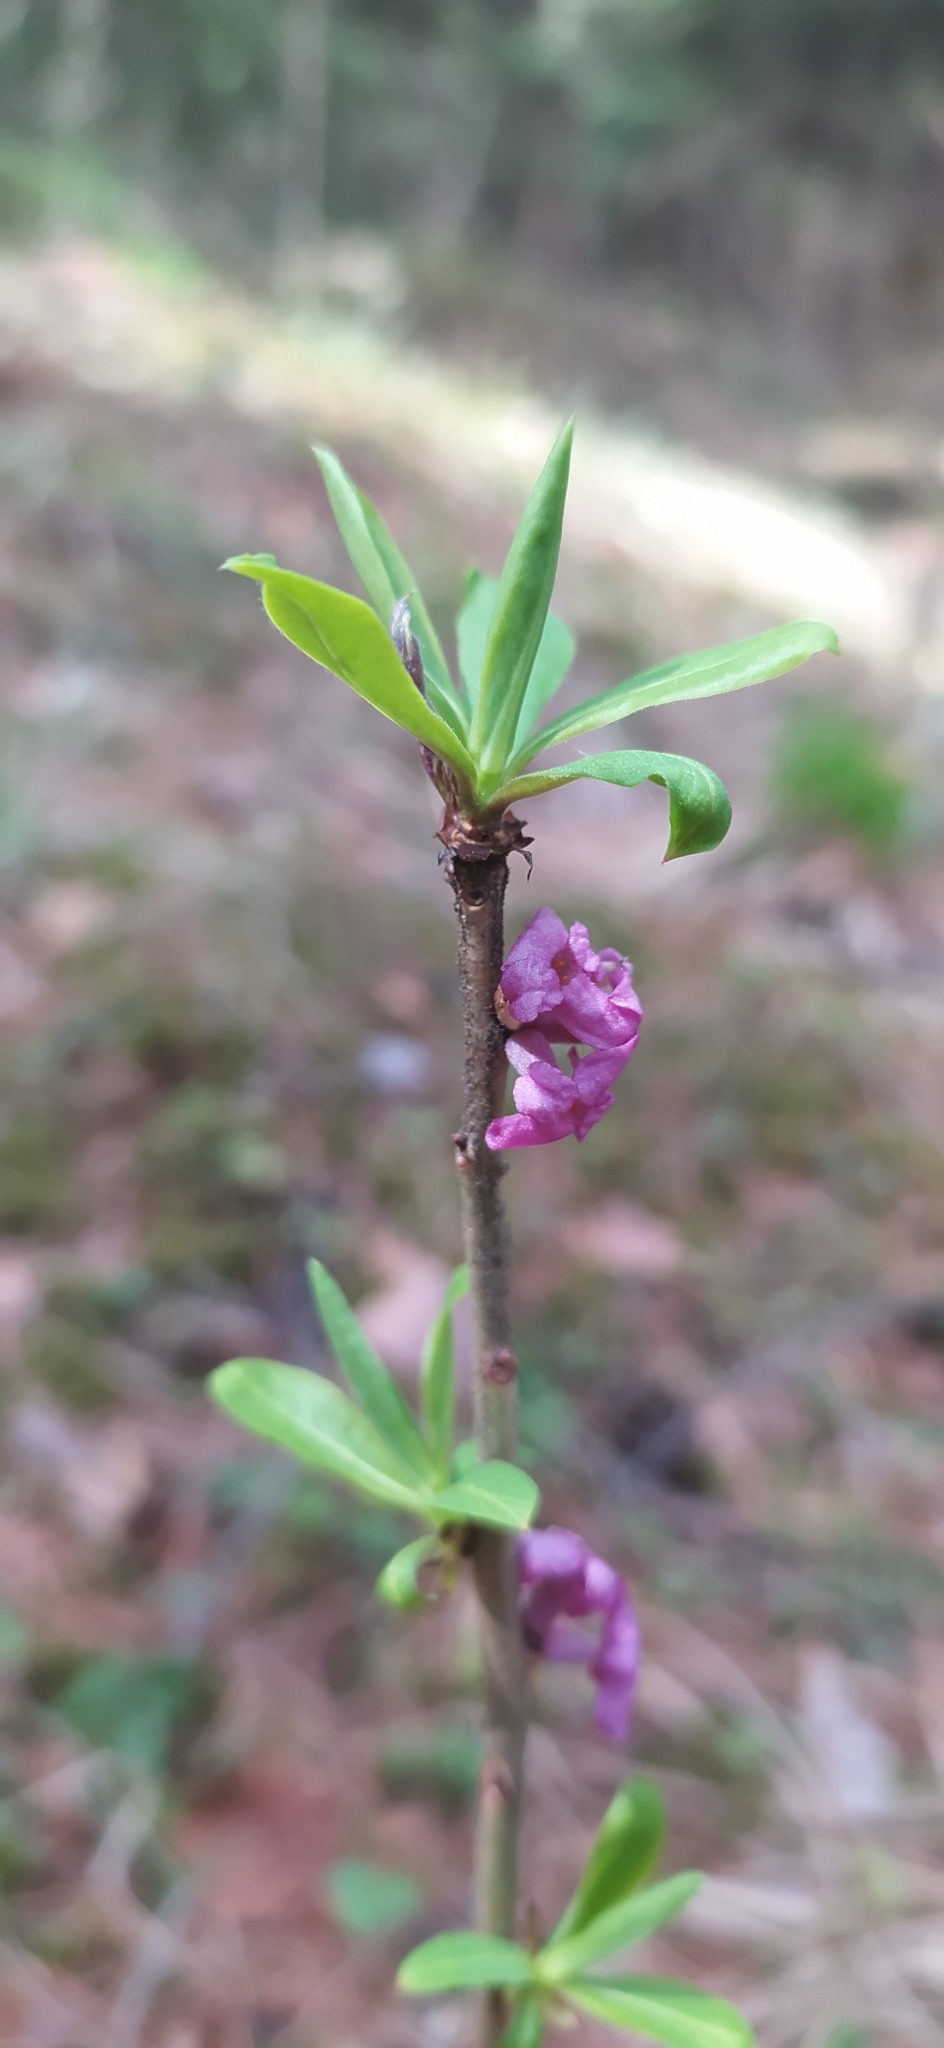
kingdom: Plantae
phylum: Tracheophyta
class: Magnoliopsida
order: Malvales
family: Thymelaeaceae
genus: Daphne
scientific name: Daphne mezereum
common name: Mezereon
